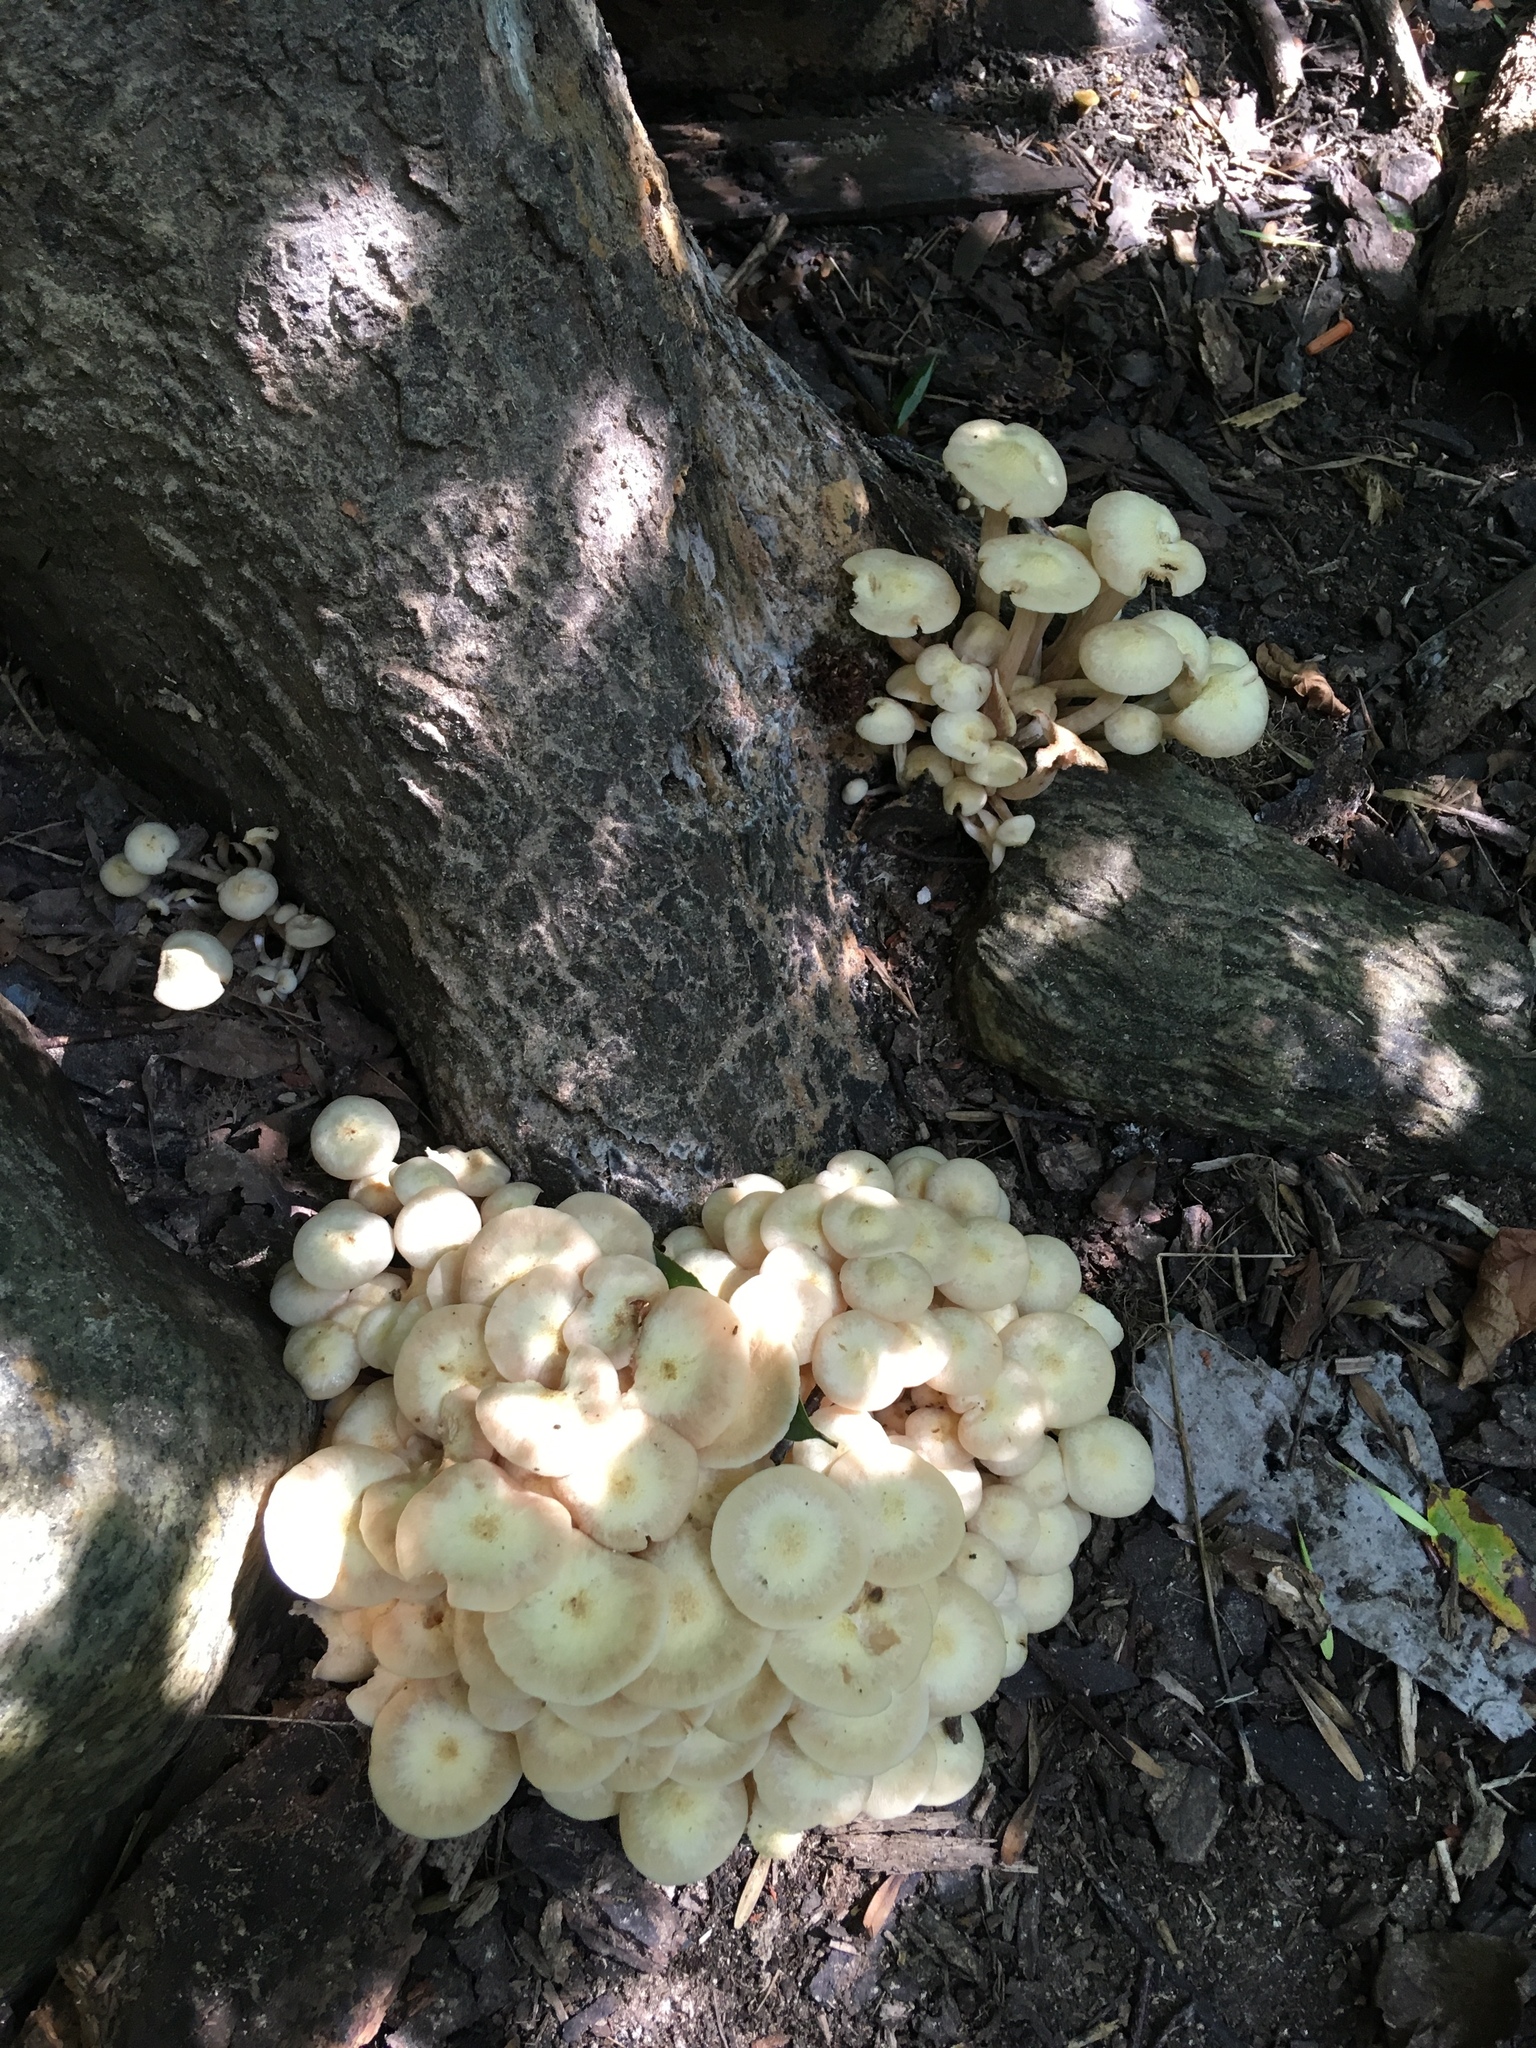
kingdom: Fungi
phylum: Basidiomycota
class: Agaricomycetes
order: Agaricales
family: Physalacriaceae
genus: Desarmillaria
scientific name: Desarmillaria caespitosa
